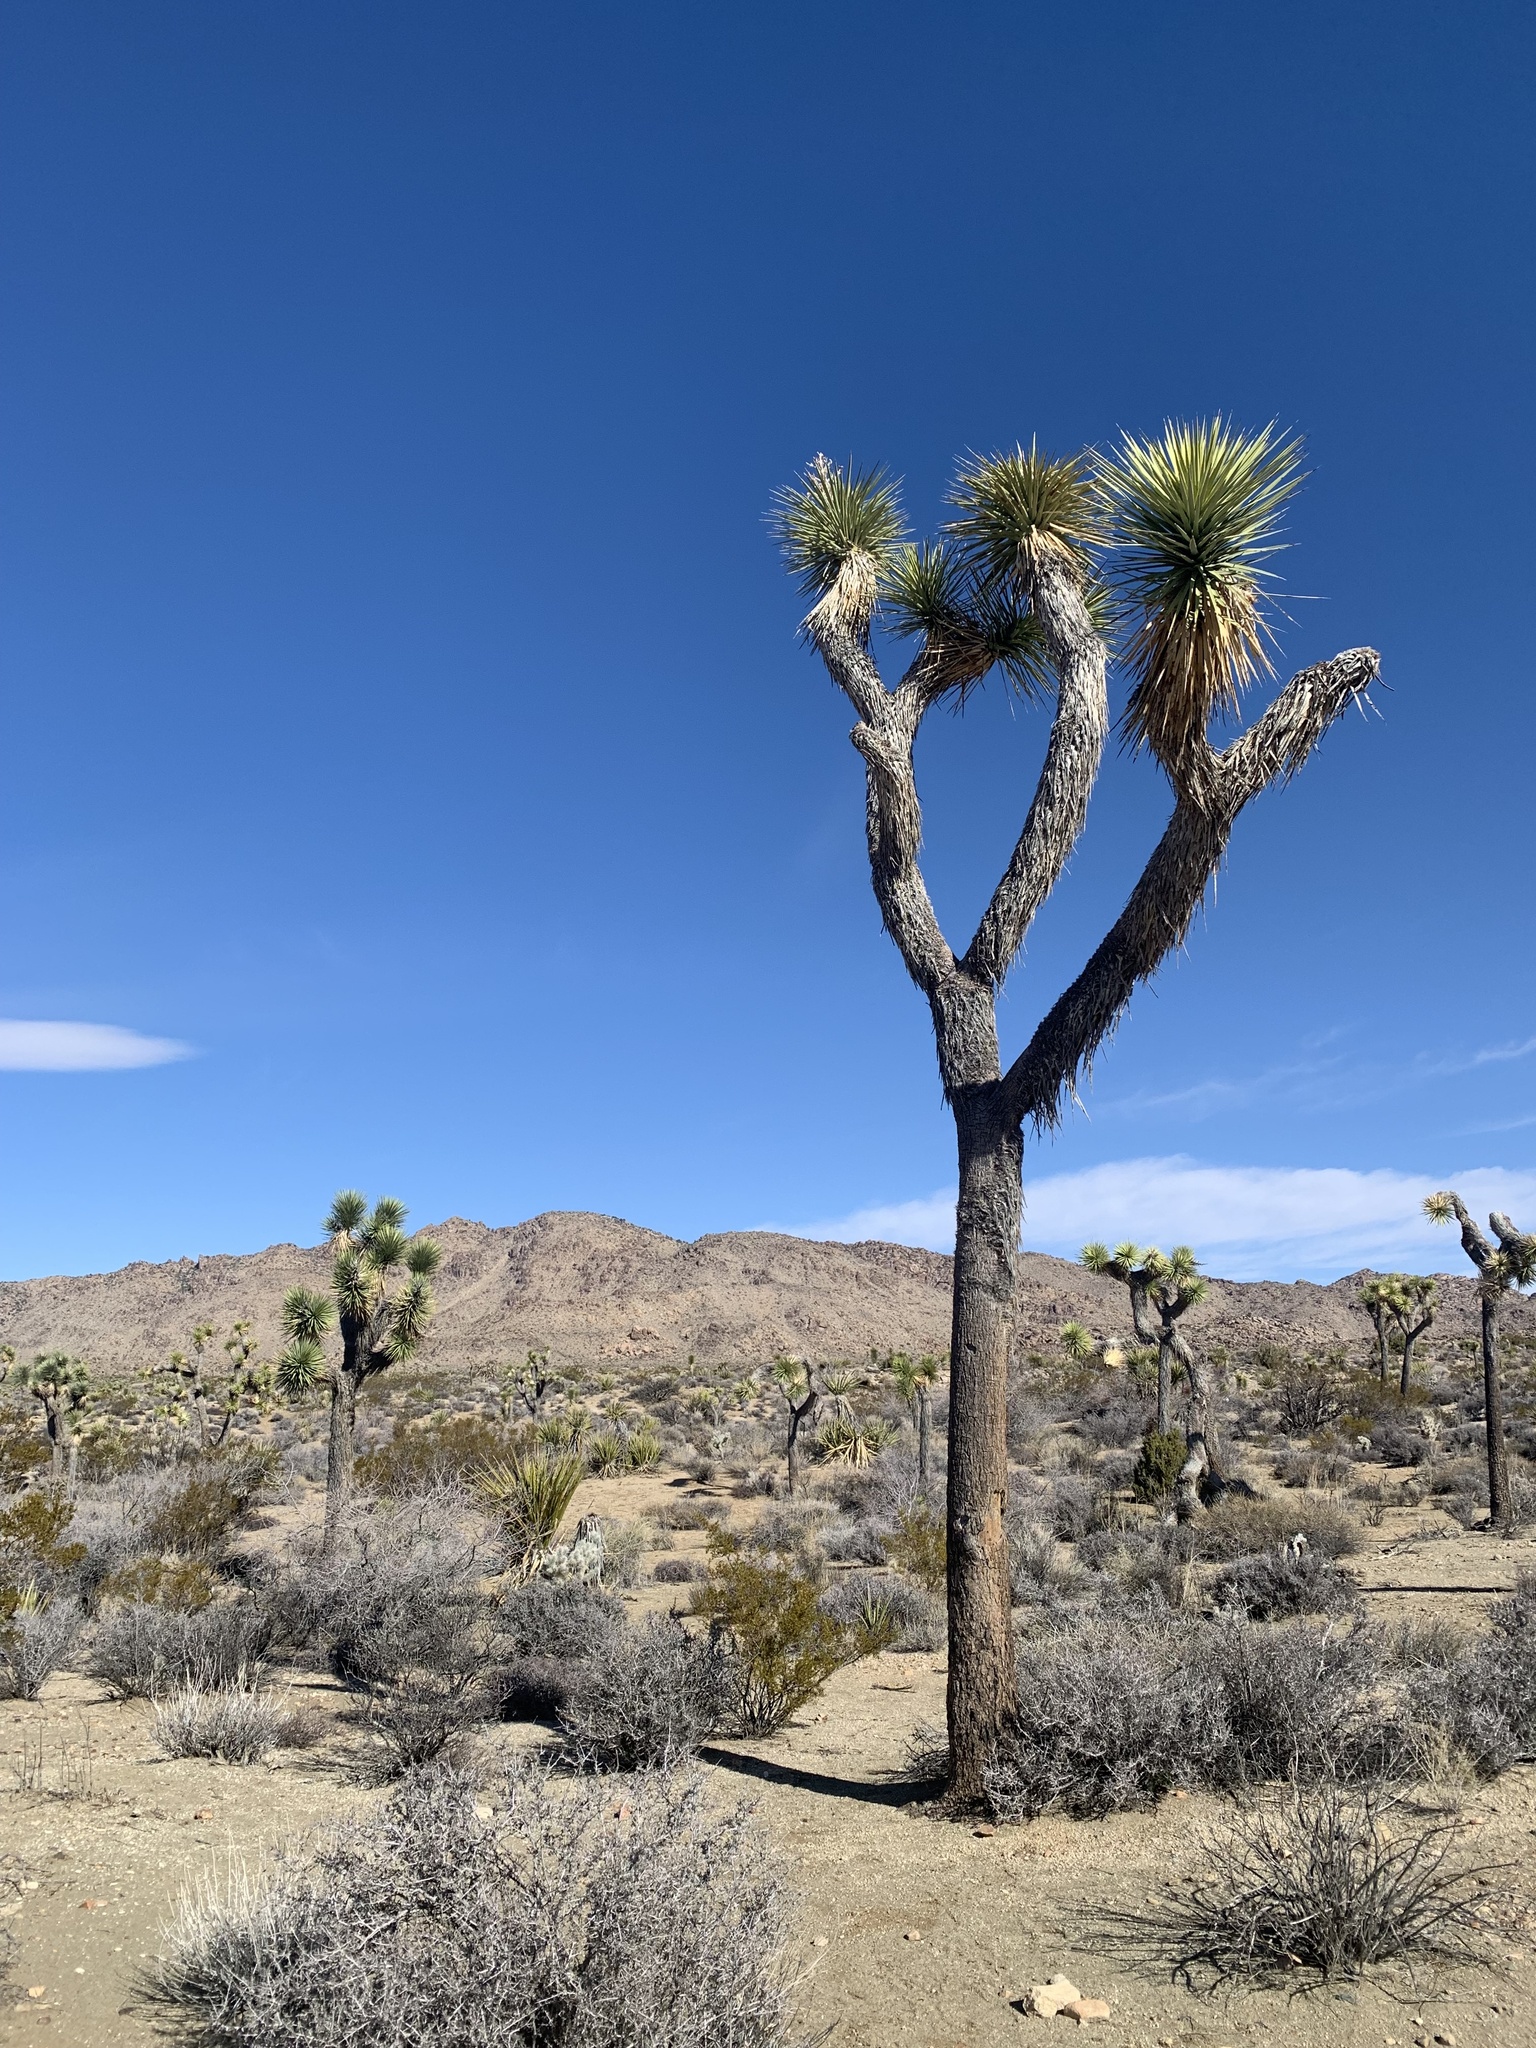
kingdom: Plantae
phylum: Tracheophyta
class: Liliopsida
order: Asparagales
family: Asparagaceae
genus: Yucca
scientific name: Yucca brevifolia
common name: Joshua tree
